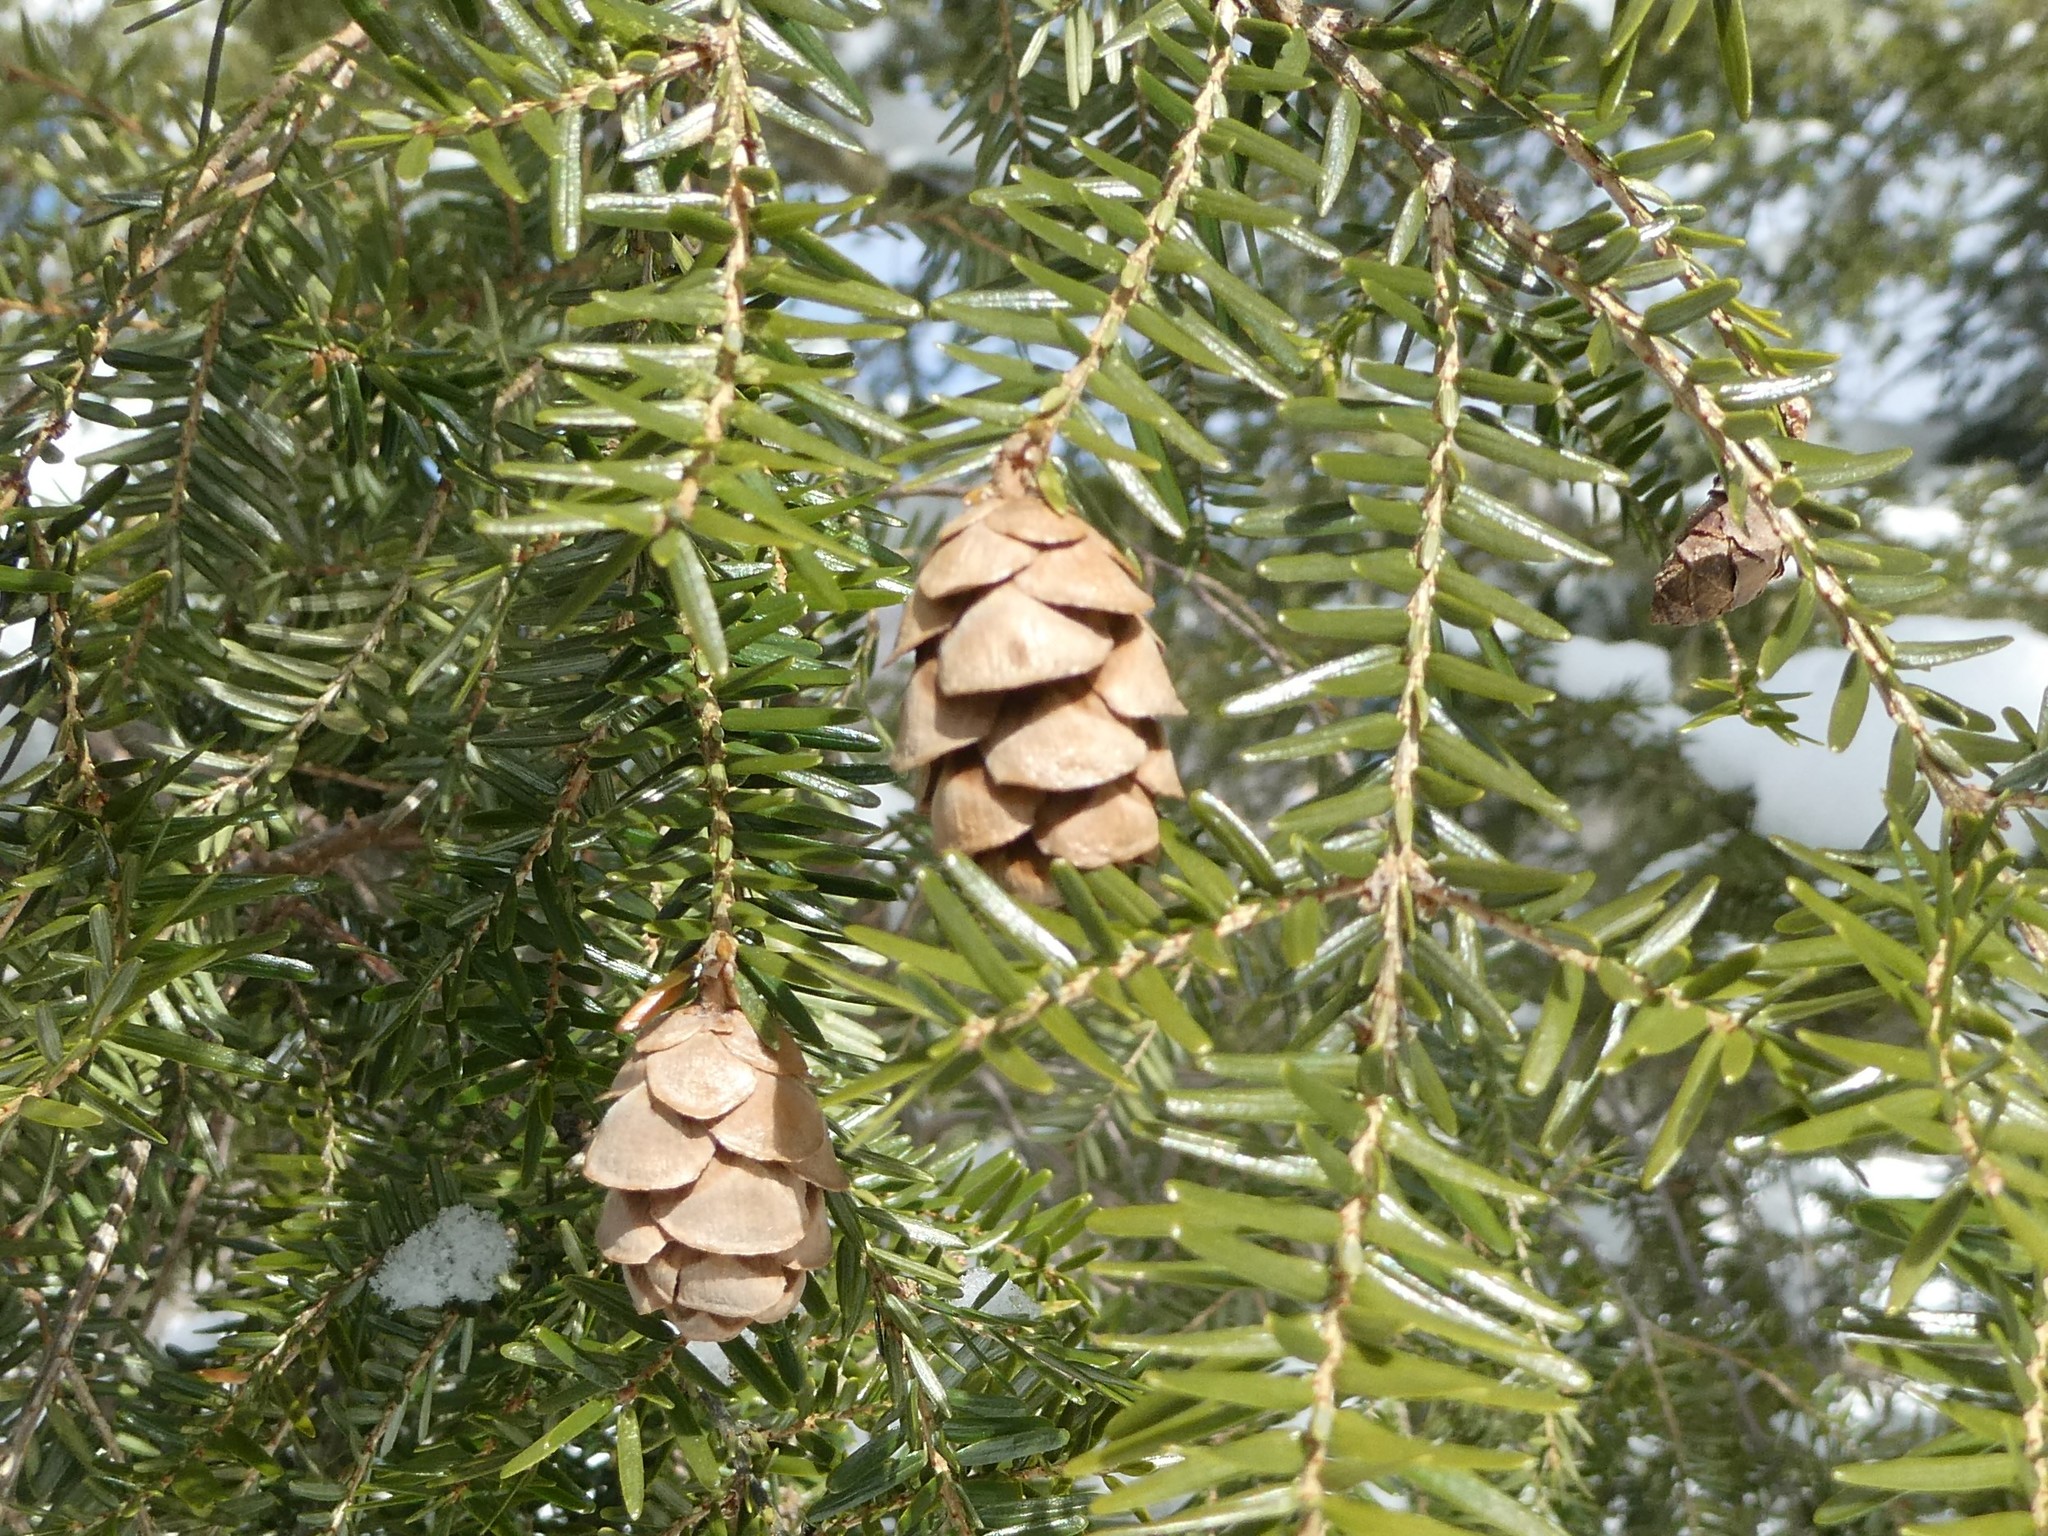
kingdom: Plantae
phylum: Tracheophyta
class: Pinopsida
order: Pinales
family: Pinaceae
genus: Tsuga
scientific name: Tsuga canadensis
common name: Eastern hemlock
